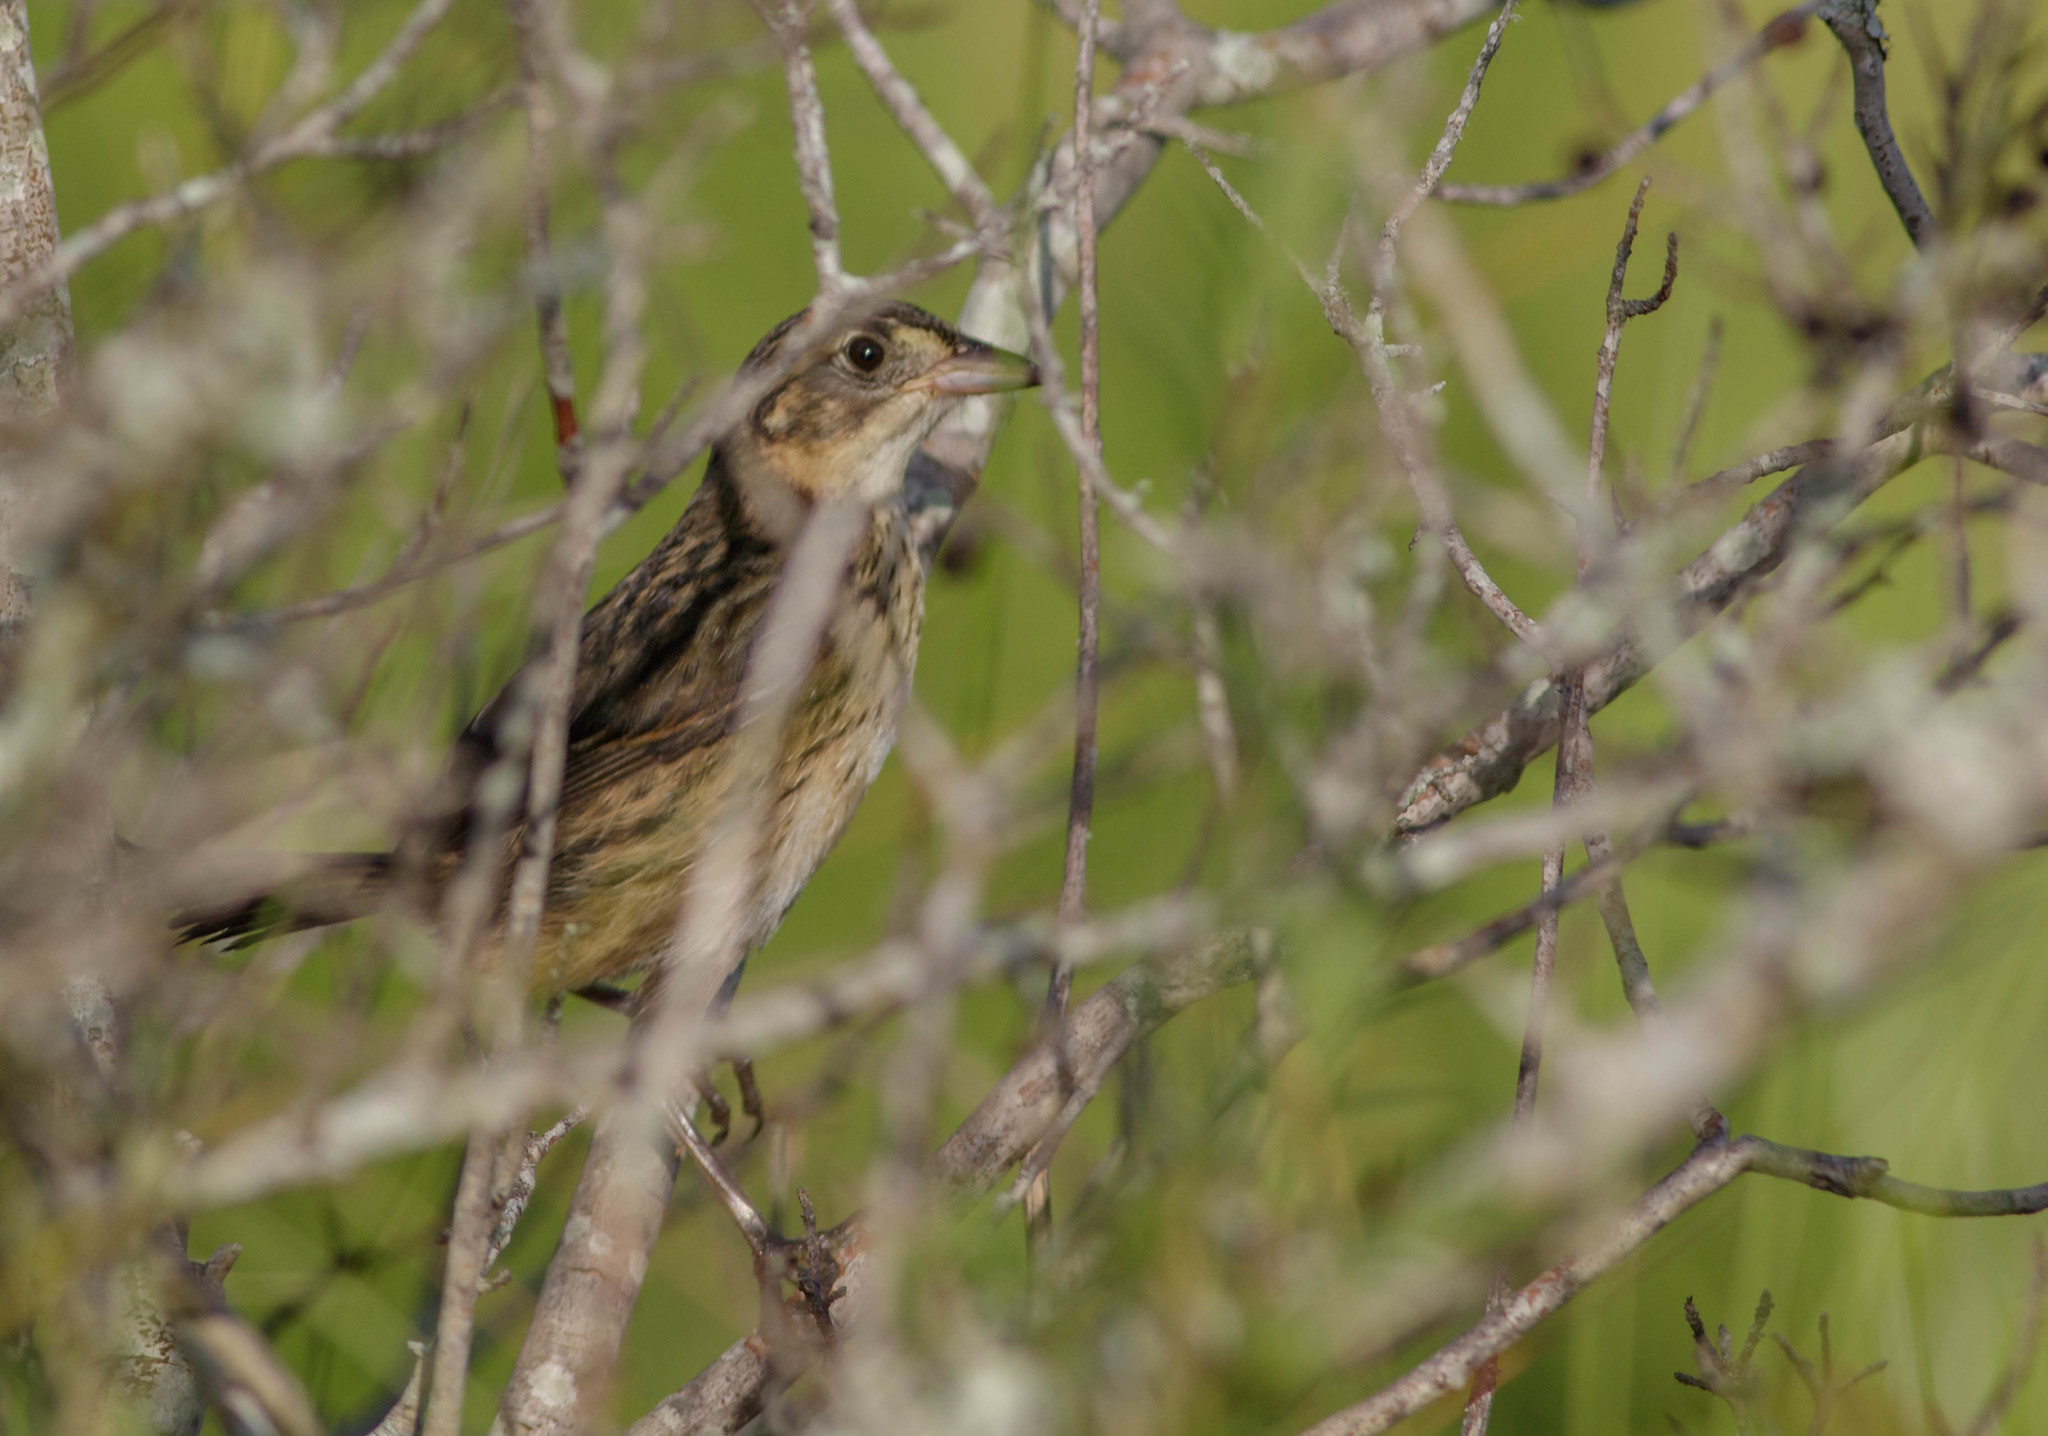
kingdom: Animalia
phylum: Chordata
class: Aves
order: Passeriformes
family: Passerellidae
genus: Ammospiza
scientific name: Ammospiza maritima
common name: Seaside sparrow
